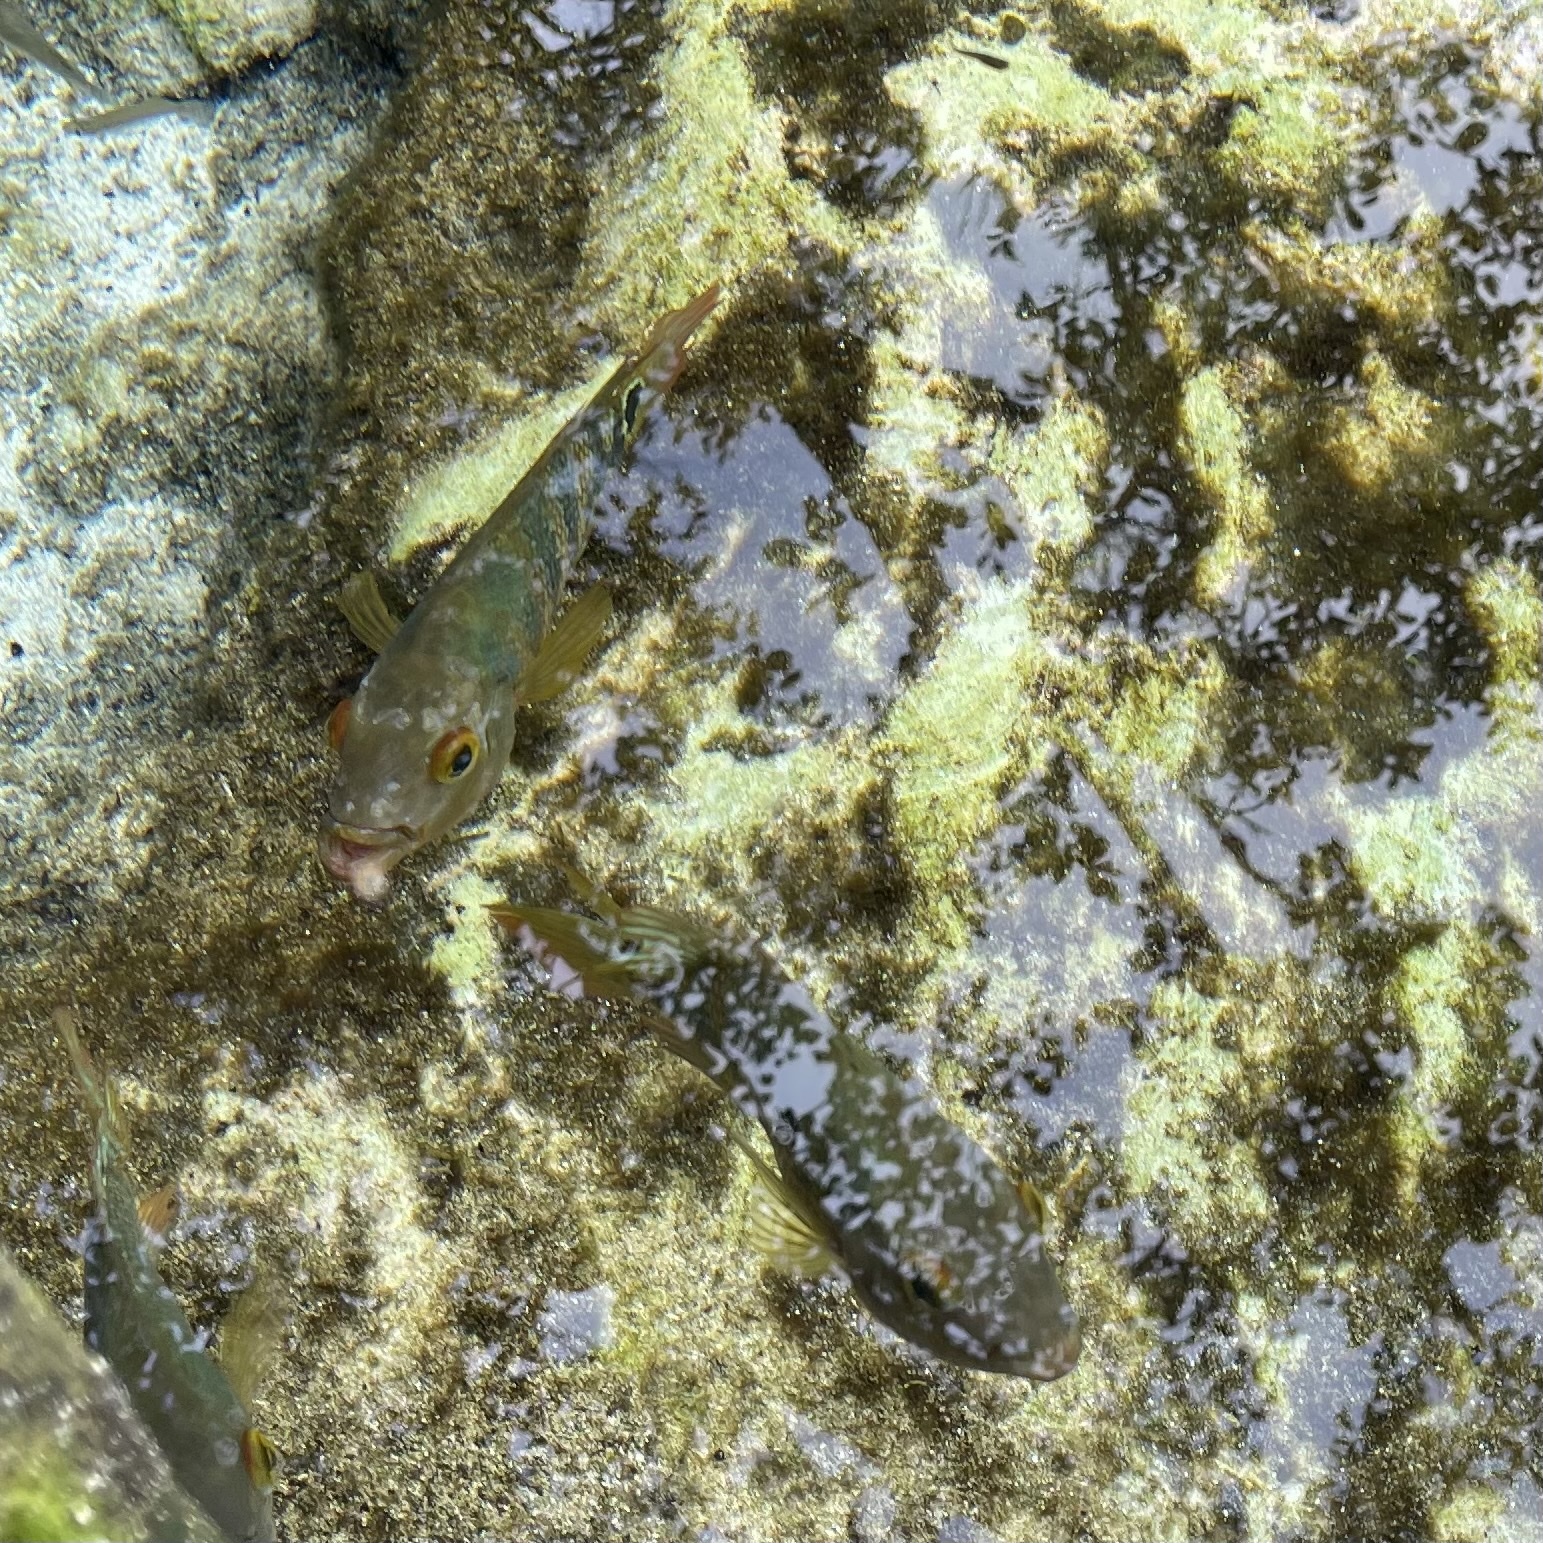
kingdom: Animalia
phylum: Chordata
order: Perciformes
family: Cichlidae
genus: Mayaheros
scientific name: Mayaheros urophthalmus
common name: Mayan cichlid
